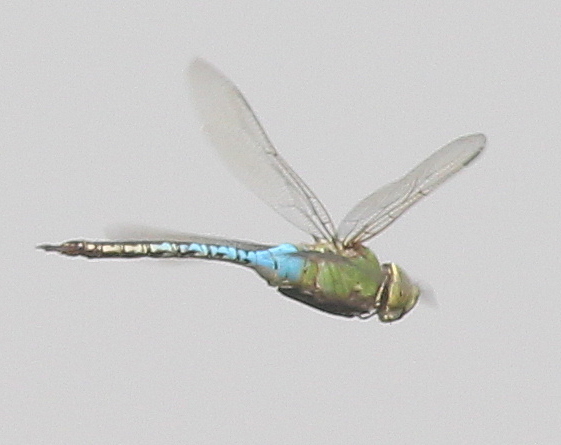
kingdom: Animalia
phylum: Arthropoda
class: Insecta
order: Odonata
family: Aeshnidae
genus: Anax
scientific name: Anax junius
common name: Common green darner
